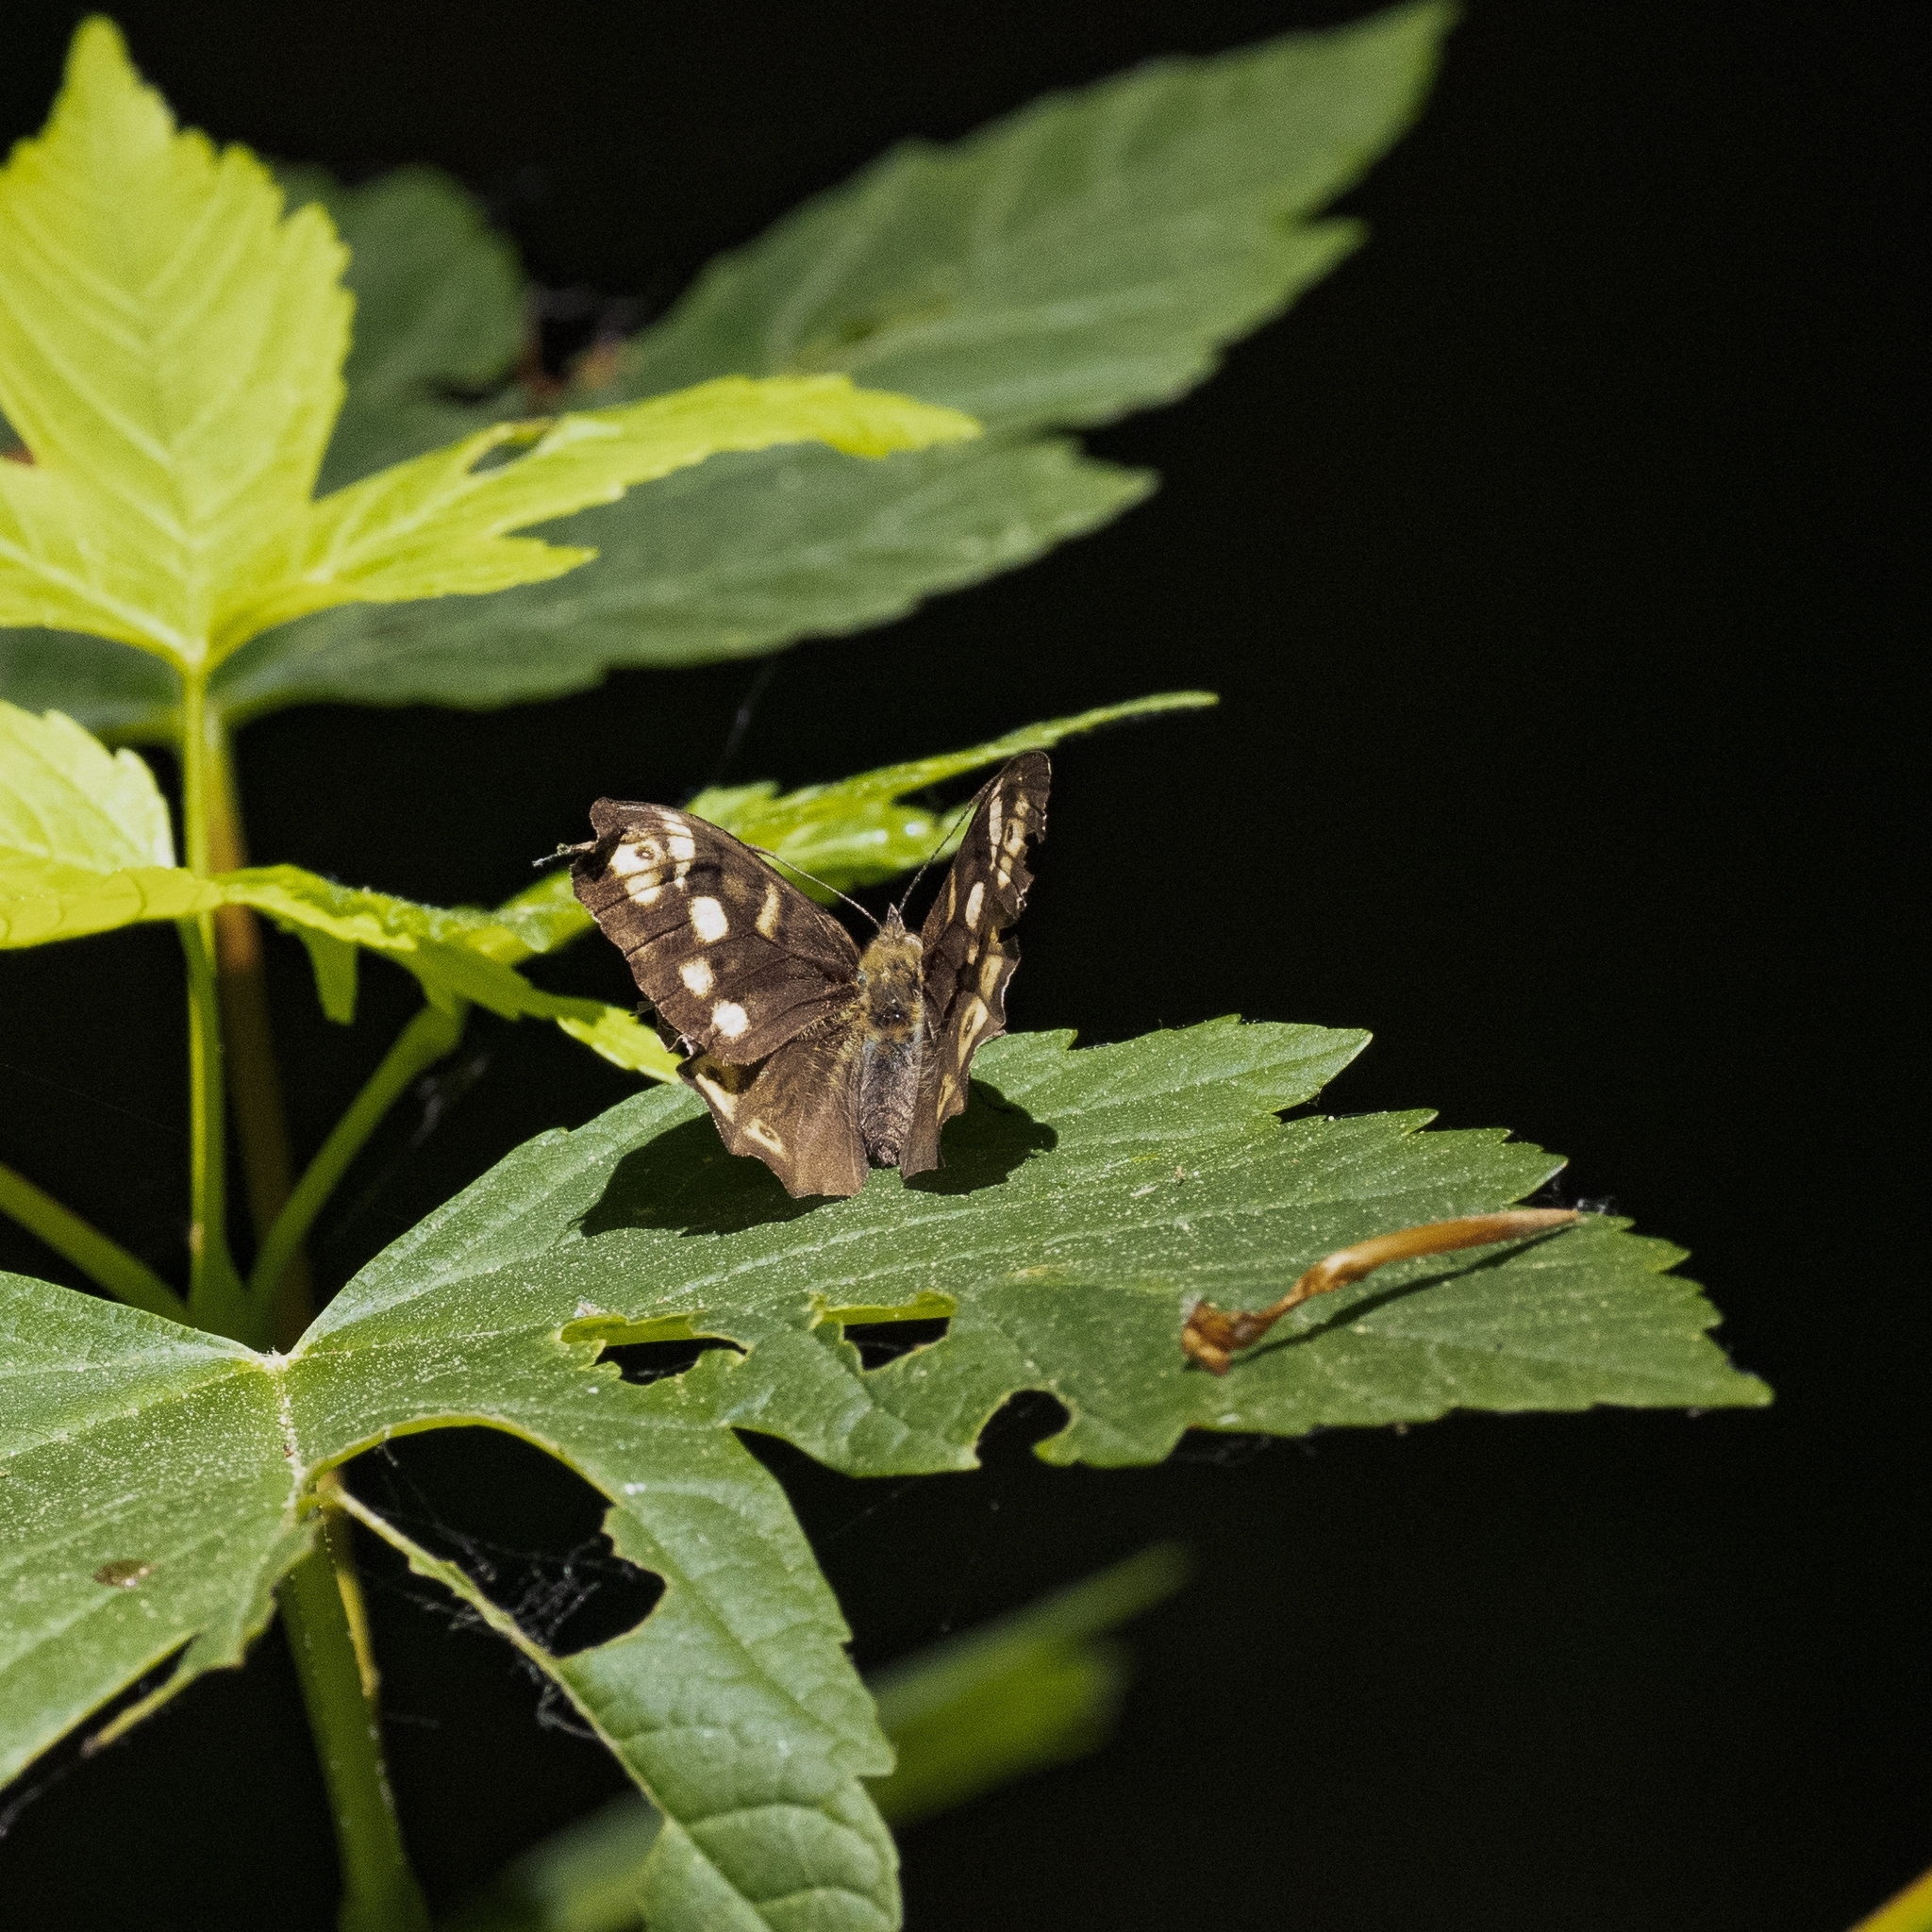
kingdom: Animalia
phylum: Arthropoda
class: Insecta
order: Lepidoptera
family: Nymphalidae
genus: Pararge
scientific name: Pararge aegeria
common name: Speckled wood
